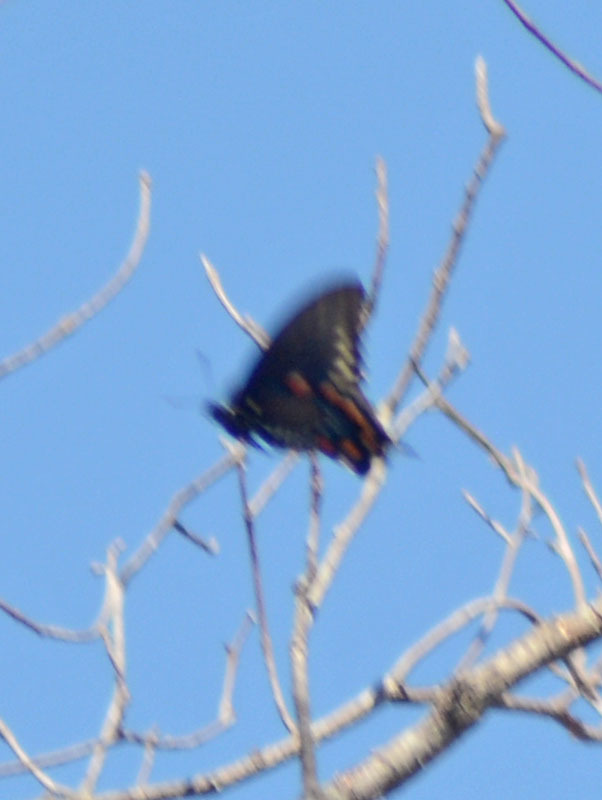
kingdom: Animalia
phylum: Arthropoda
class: Insecta
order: Lepidoptera
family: Papilionidae
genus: Battus
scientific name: Battus philenor
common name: Pipevine swallowtail
